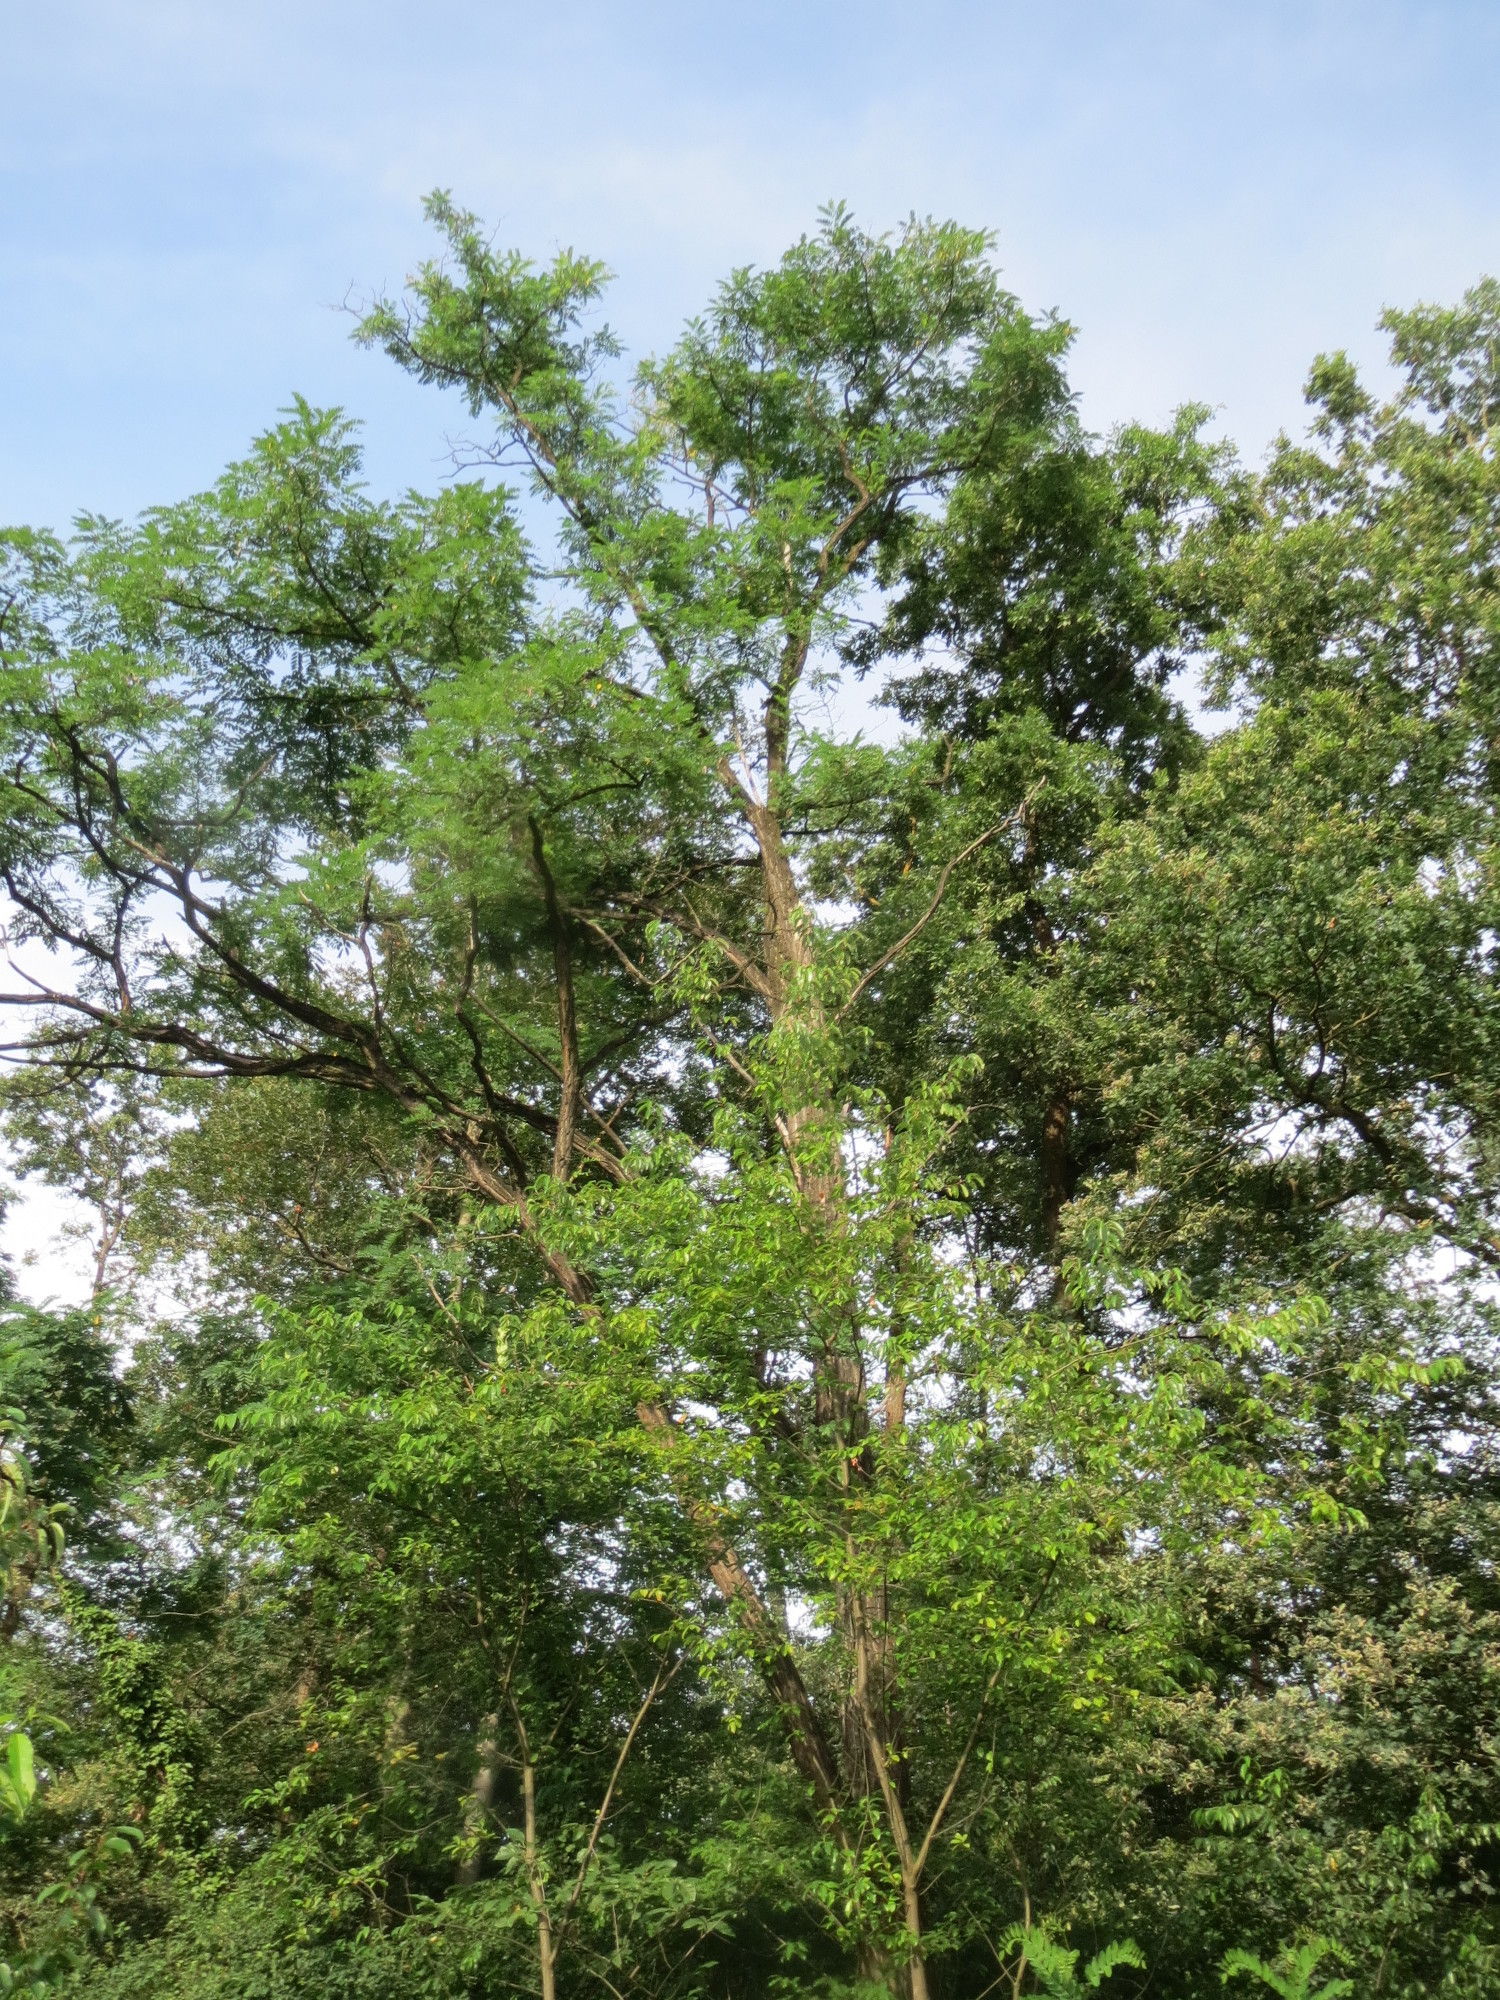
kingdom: Plantae
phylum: Tracheophyta
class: Magnoliopsida
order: Fabales
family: Fabaceae
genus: Robinia
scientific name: Robinia pseudoacacia
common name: Black locust
